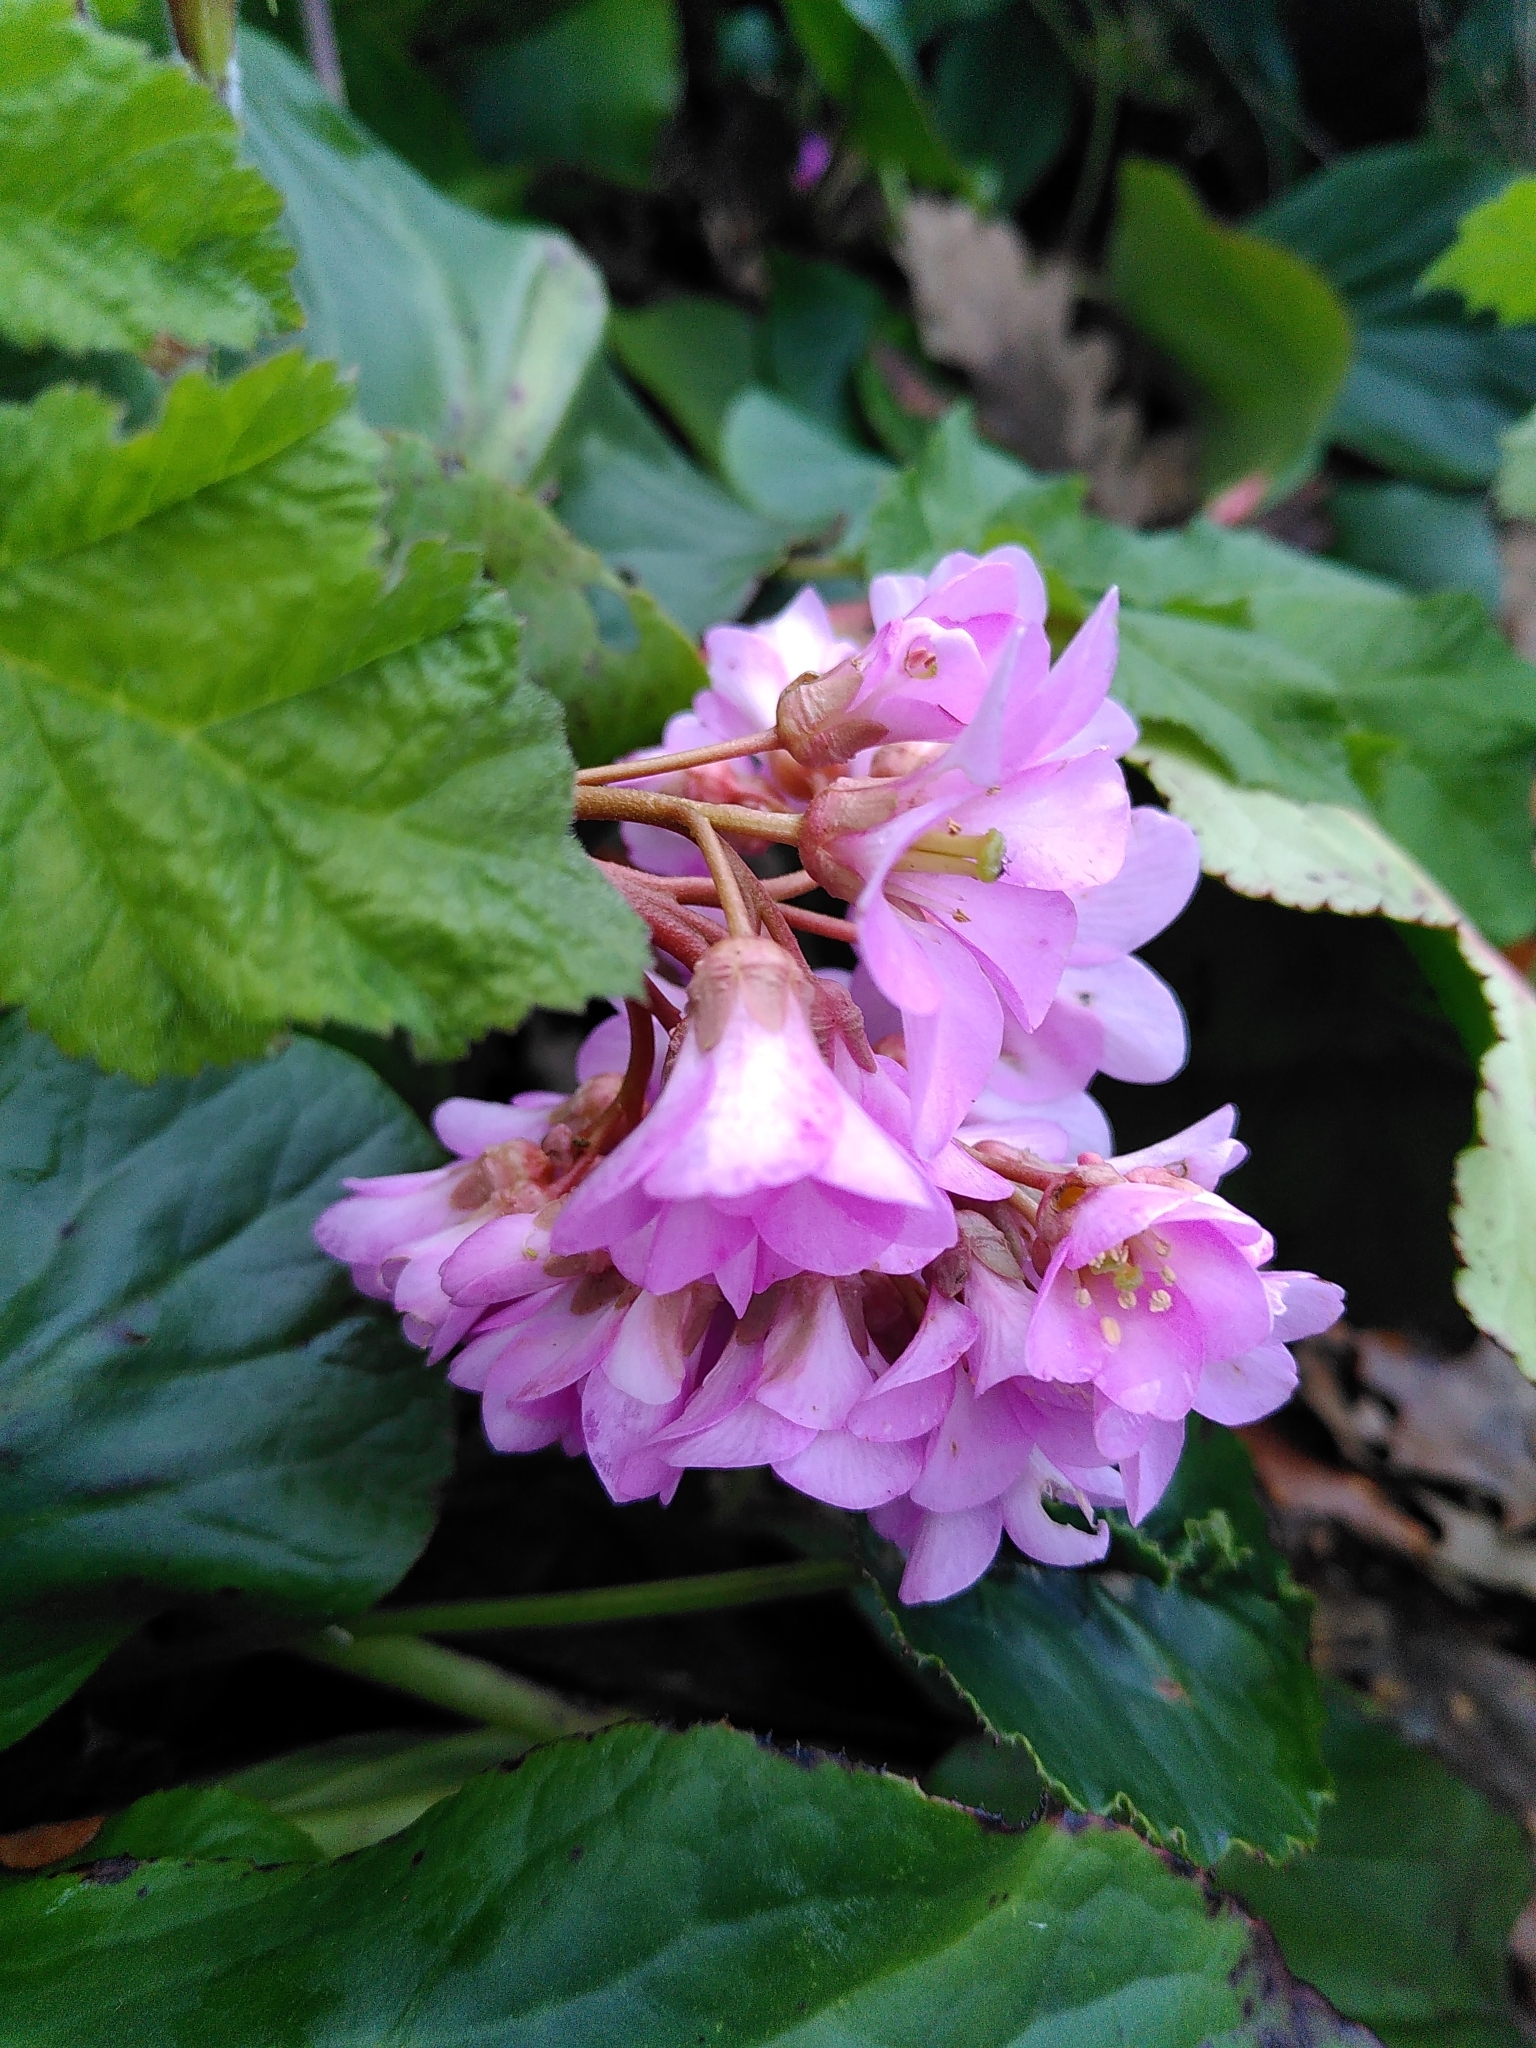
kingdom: Plantae
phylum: Tracheophyta
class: Magnoliopsida
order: Saxifragales
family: Saxifragaceae
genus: Bergenia
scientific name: Bergenia crassifolia
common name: Elephant-ears
